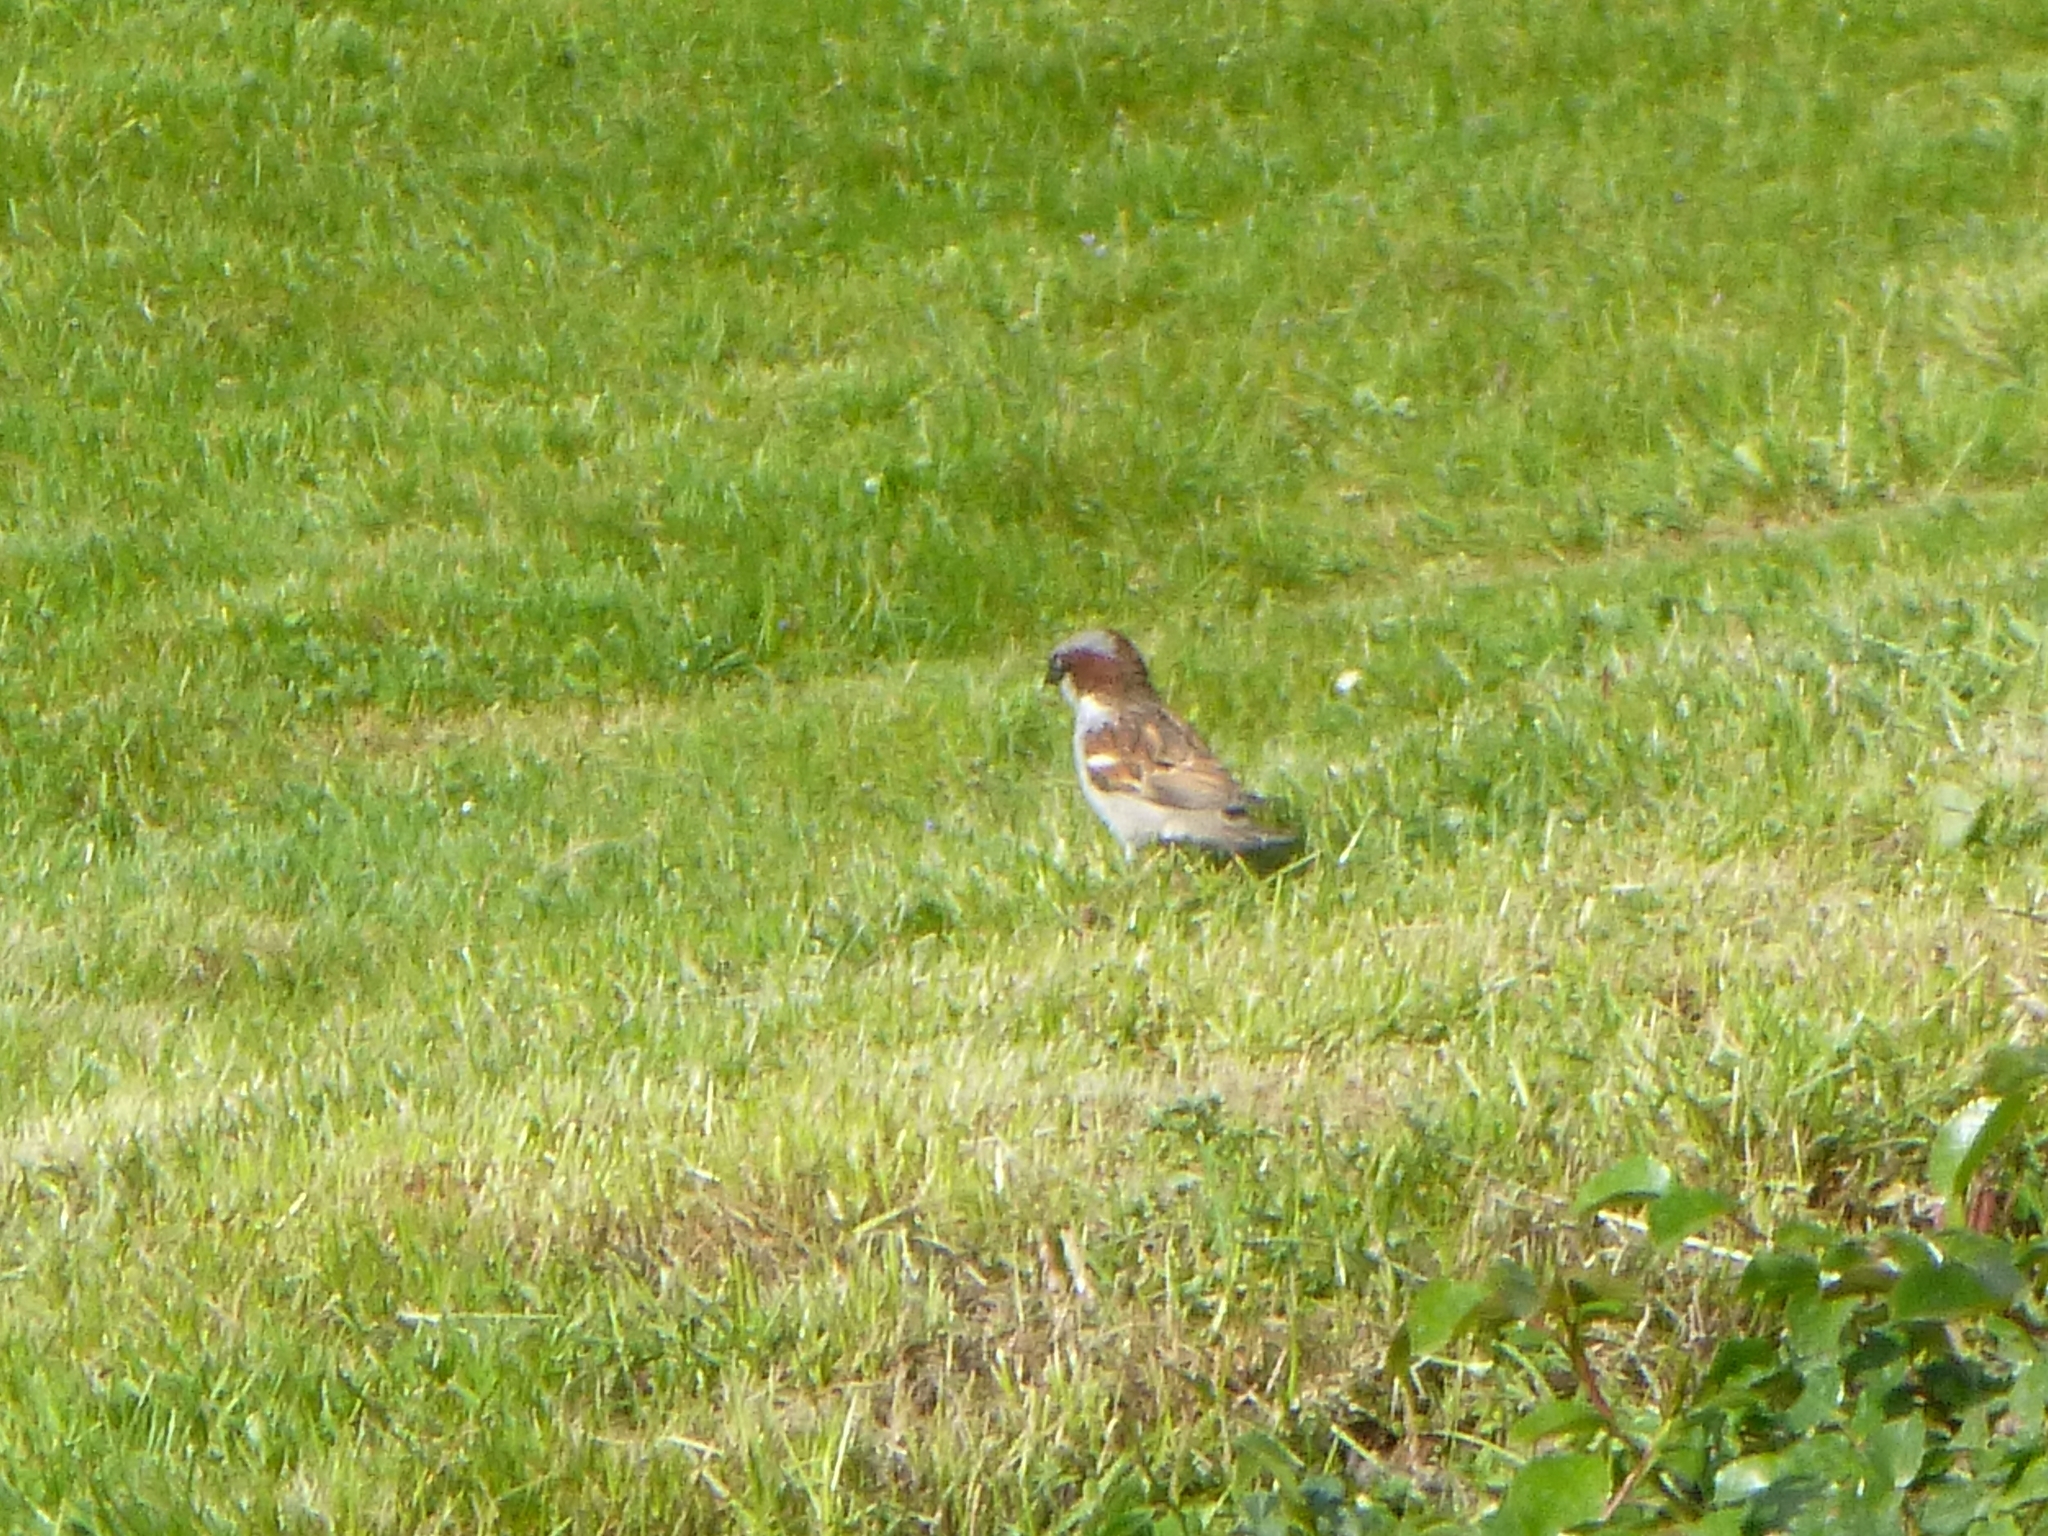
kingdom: Animalia
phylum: Chordata
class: Aves
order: Passeriformes
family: Passeridae
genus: Passer
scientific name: Passer domesticus
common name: House sparrow
